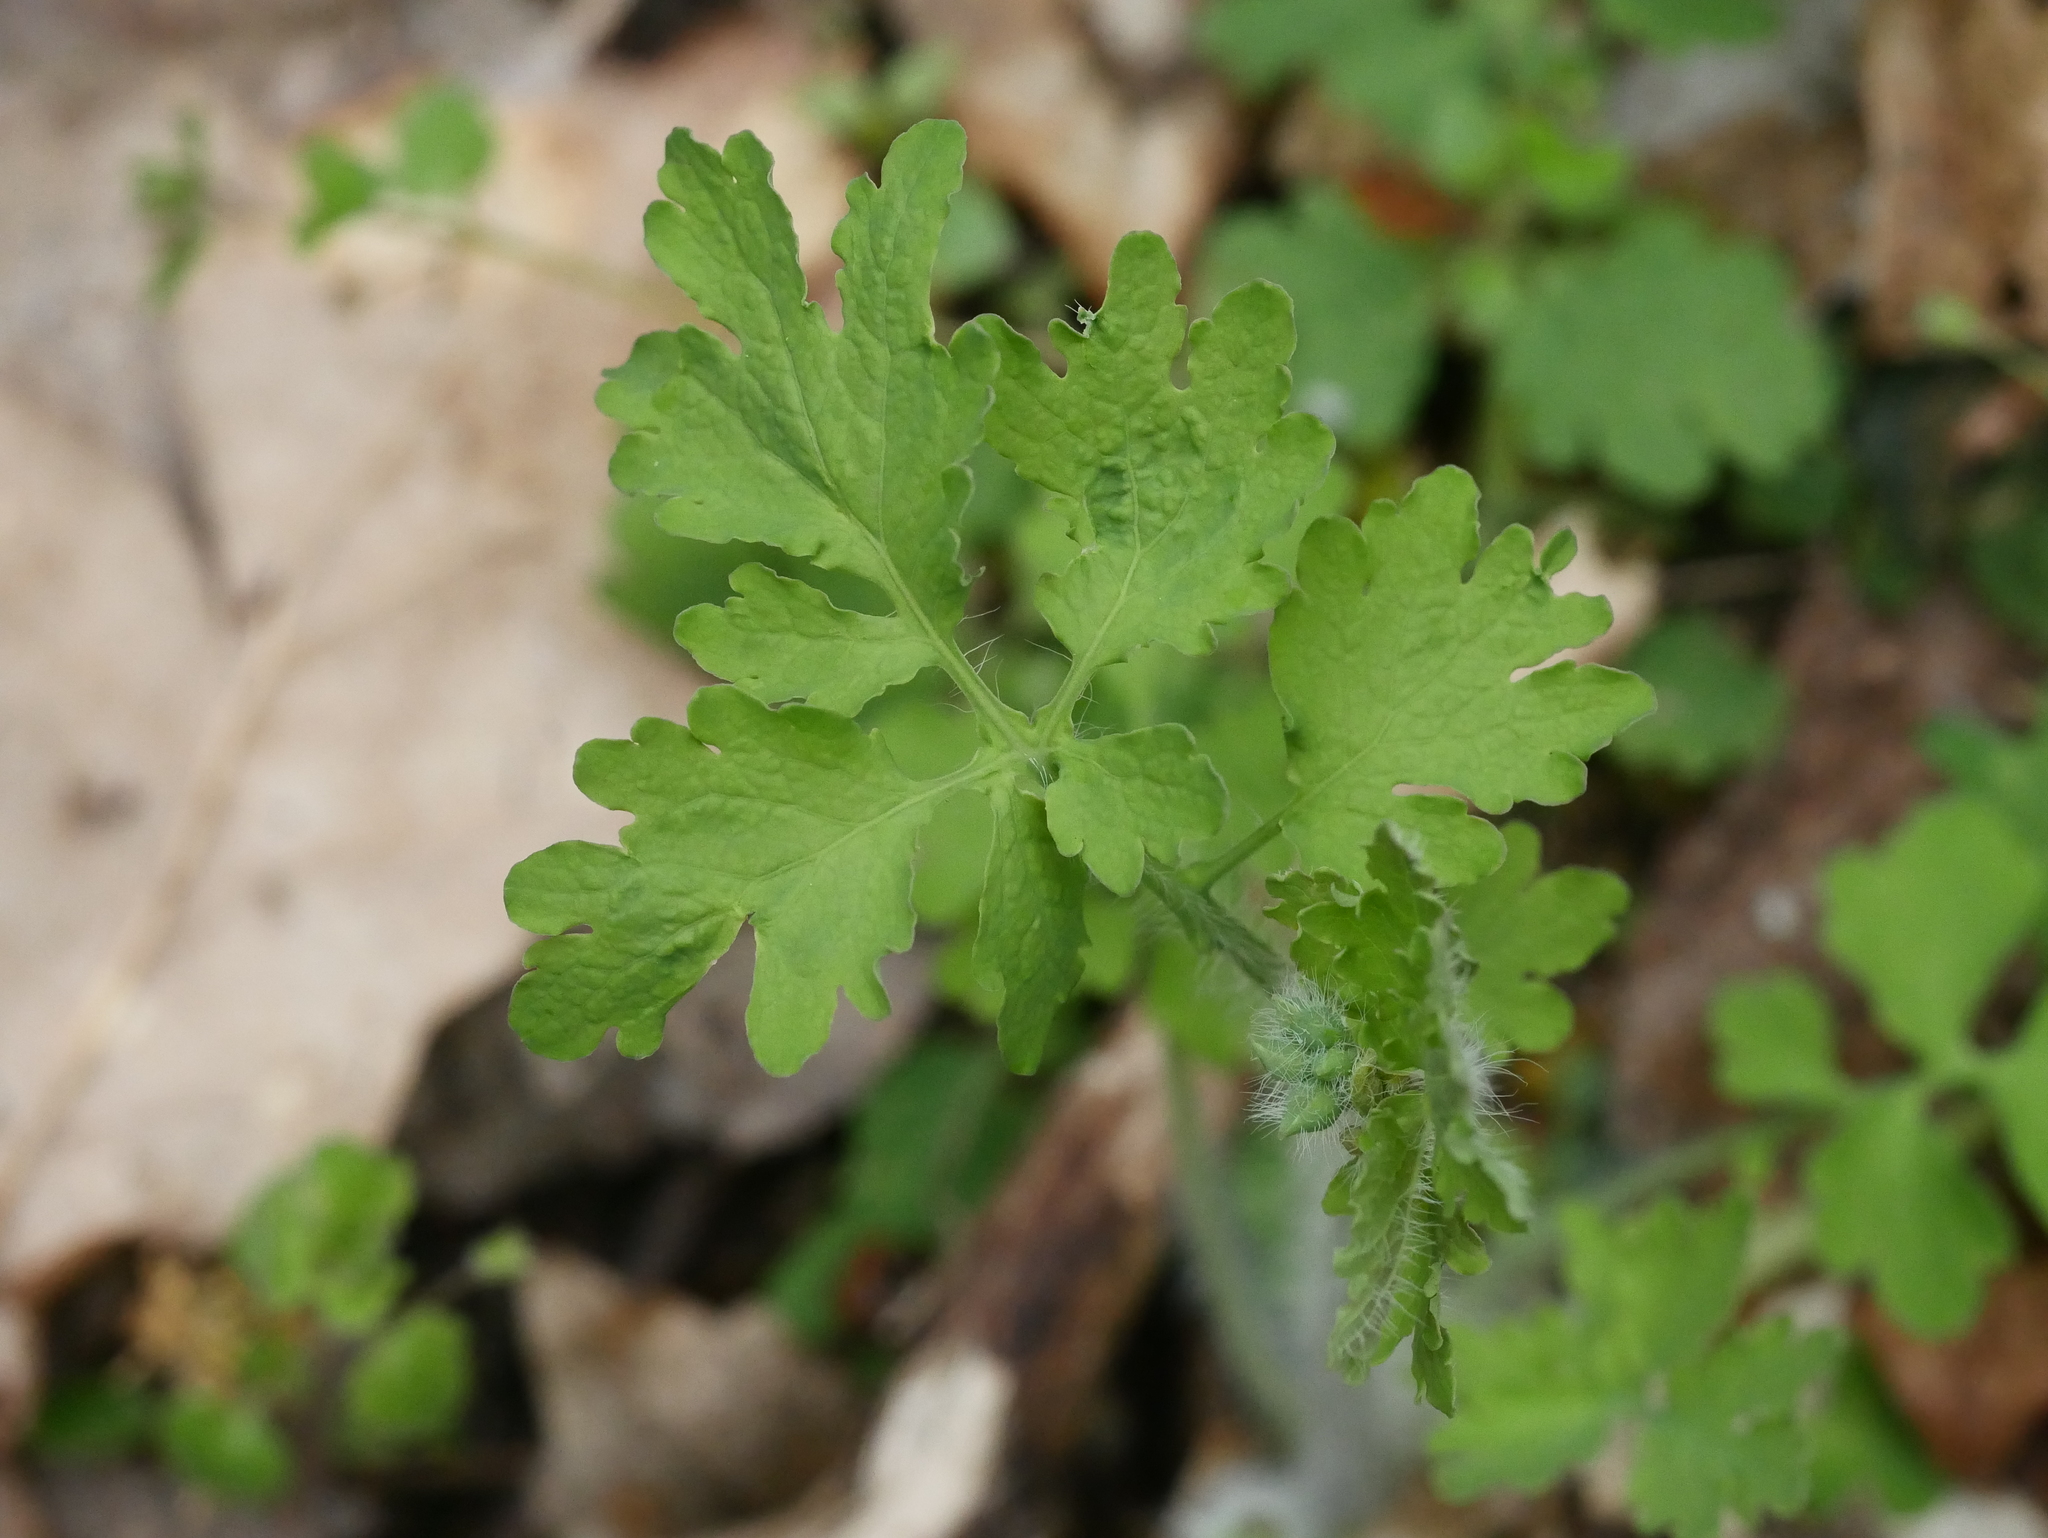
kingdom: Plantae
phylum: Tracheophyta
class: Magnoliopsida
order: Ranunculales
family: Papaveraceae
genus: Chelidonium
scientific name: Chelidonium majus
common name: Greater celandine
